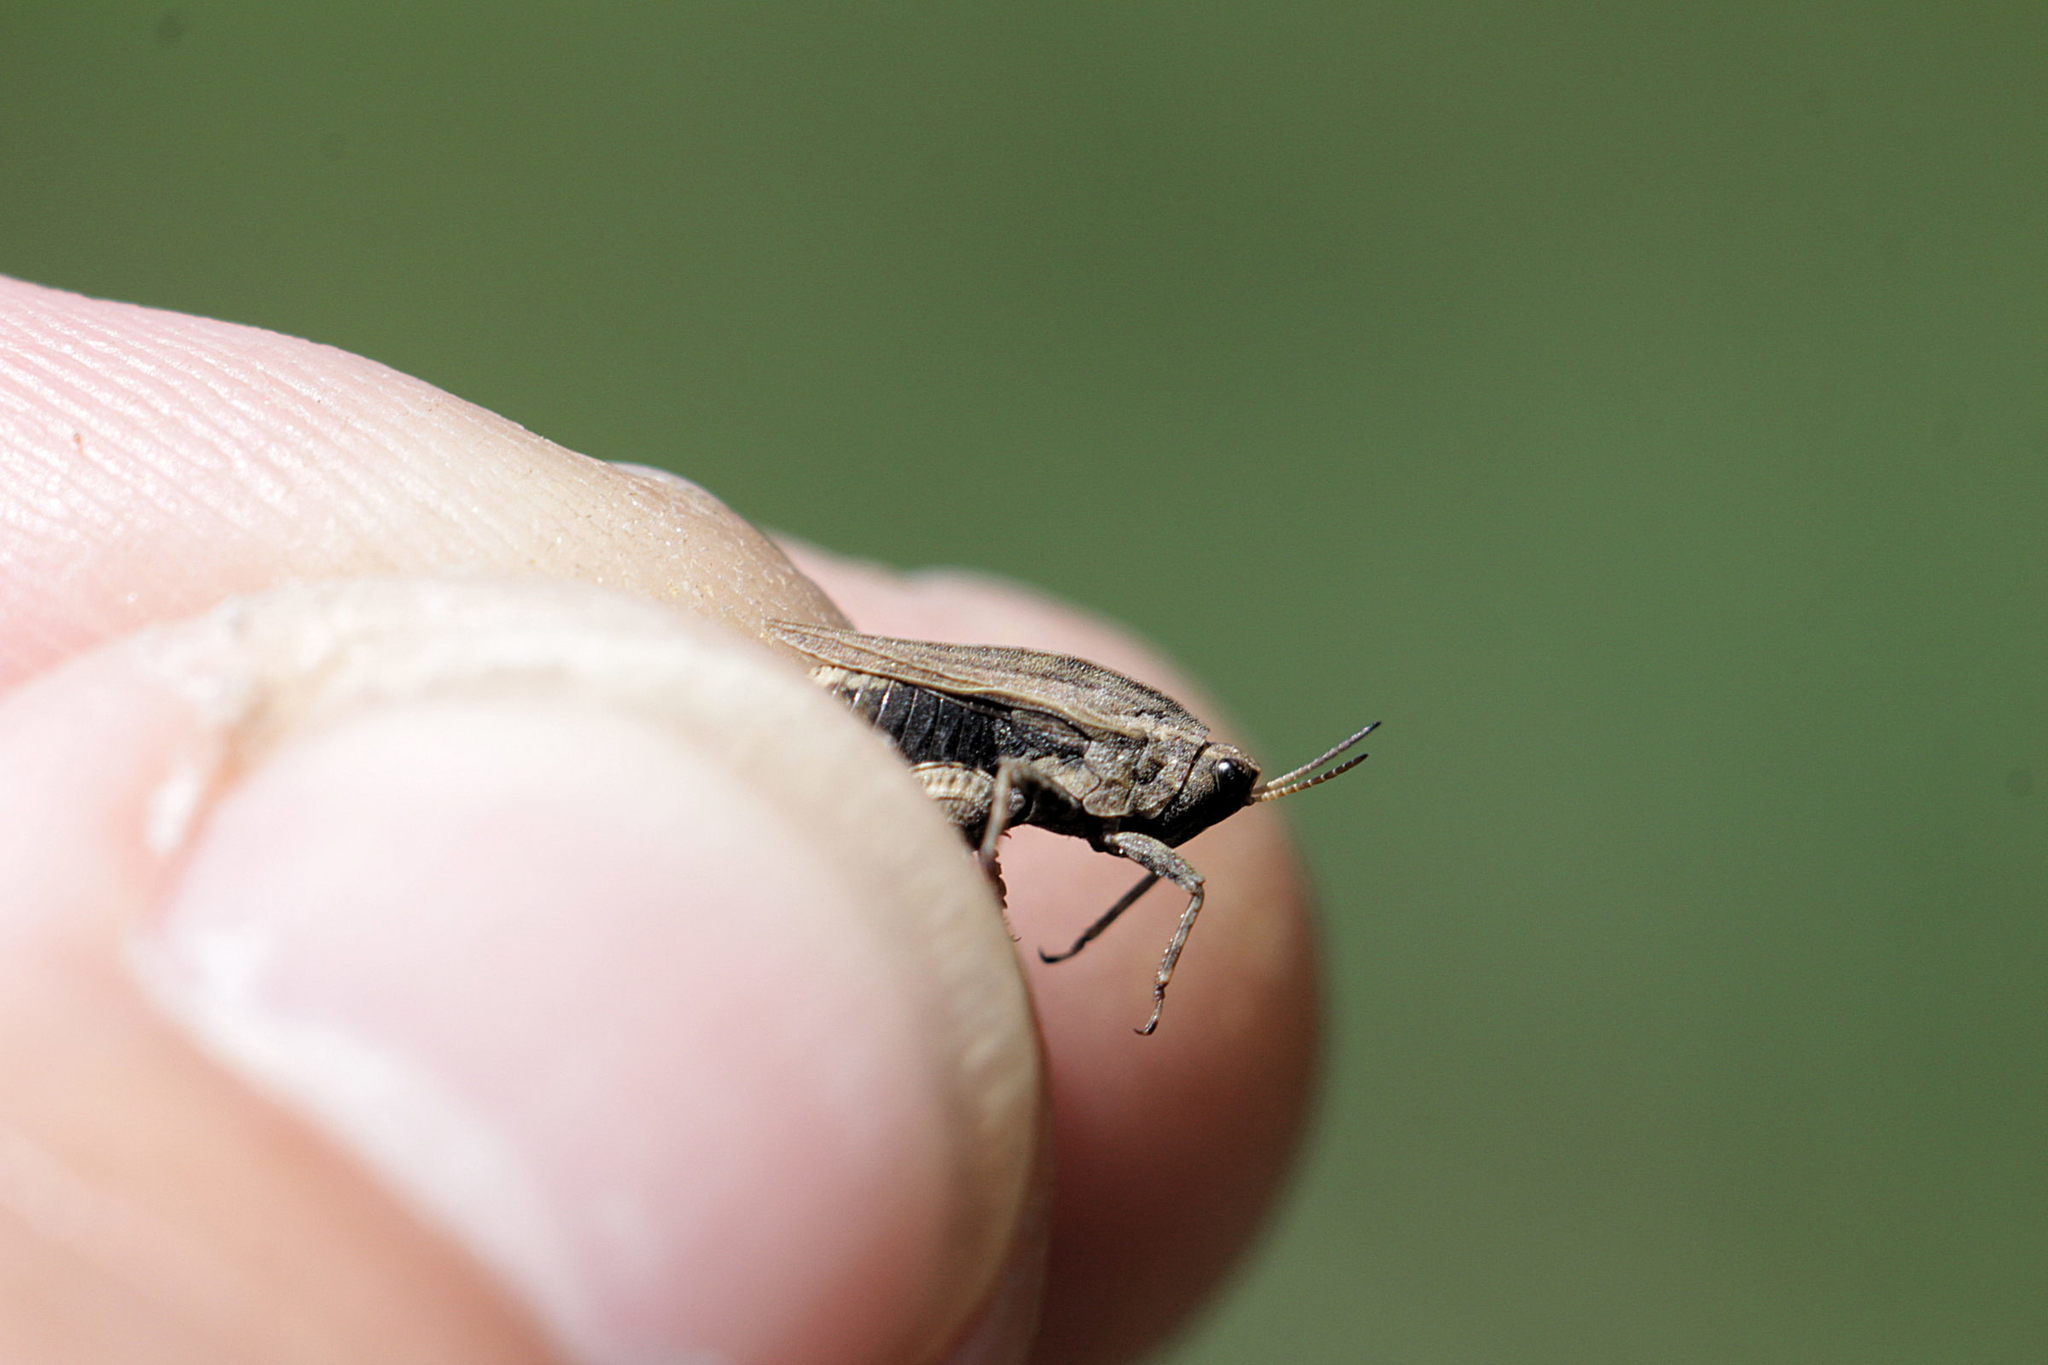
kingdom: Animalia
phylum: Arthropoda
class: Insecta
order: Orthoptera
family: Tetrigidae
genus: Tetrix
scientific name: Tetrix undulata
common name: Common groundhopper
